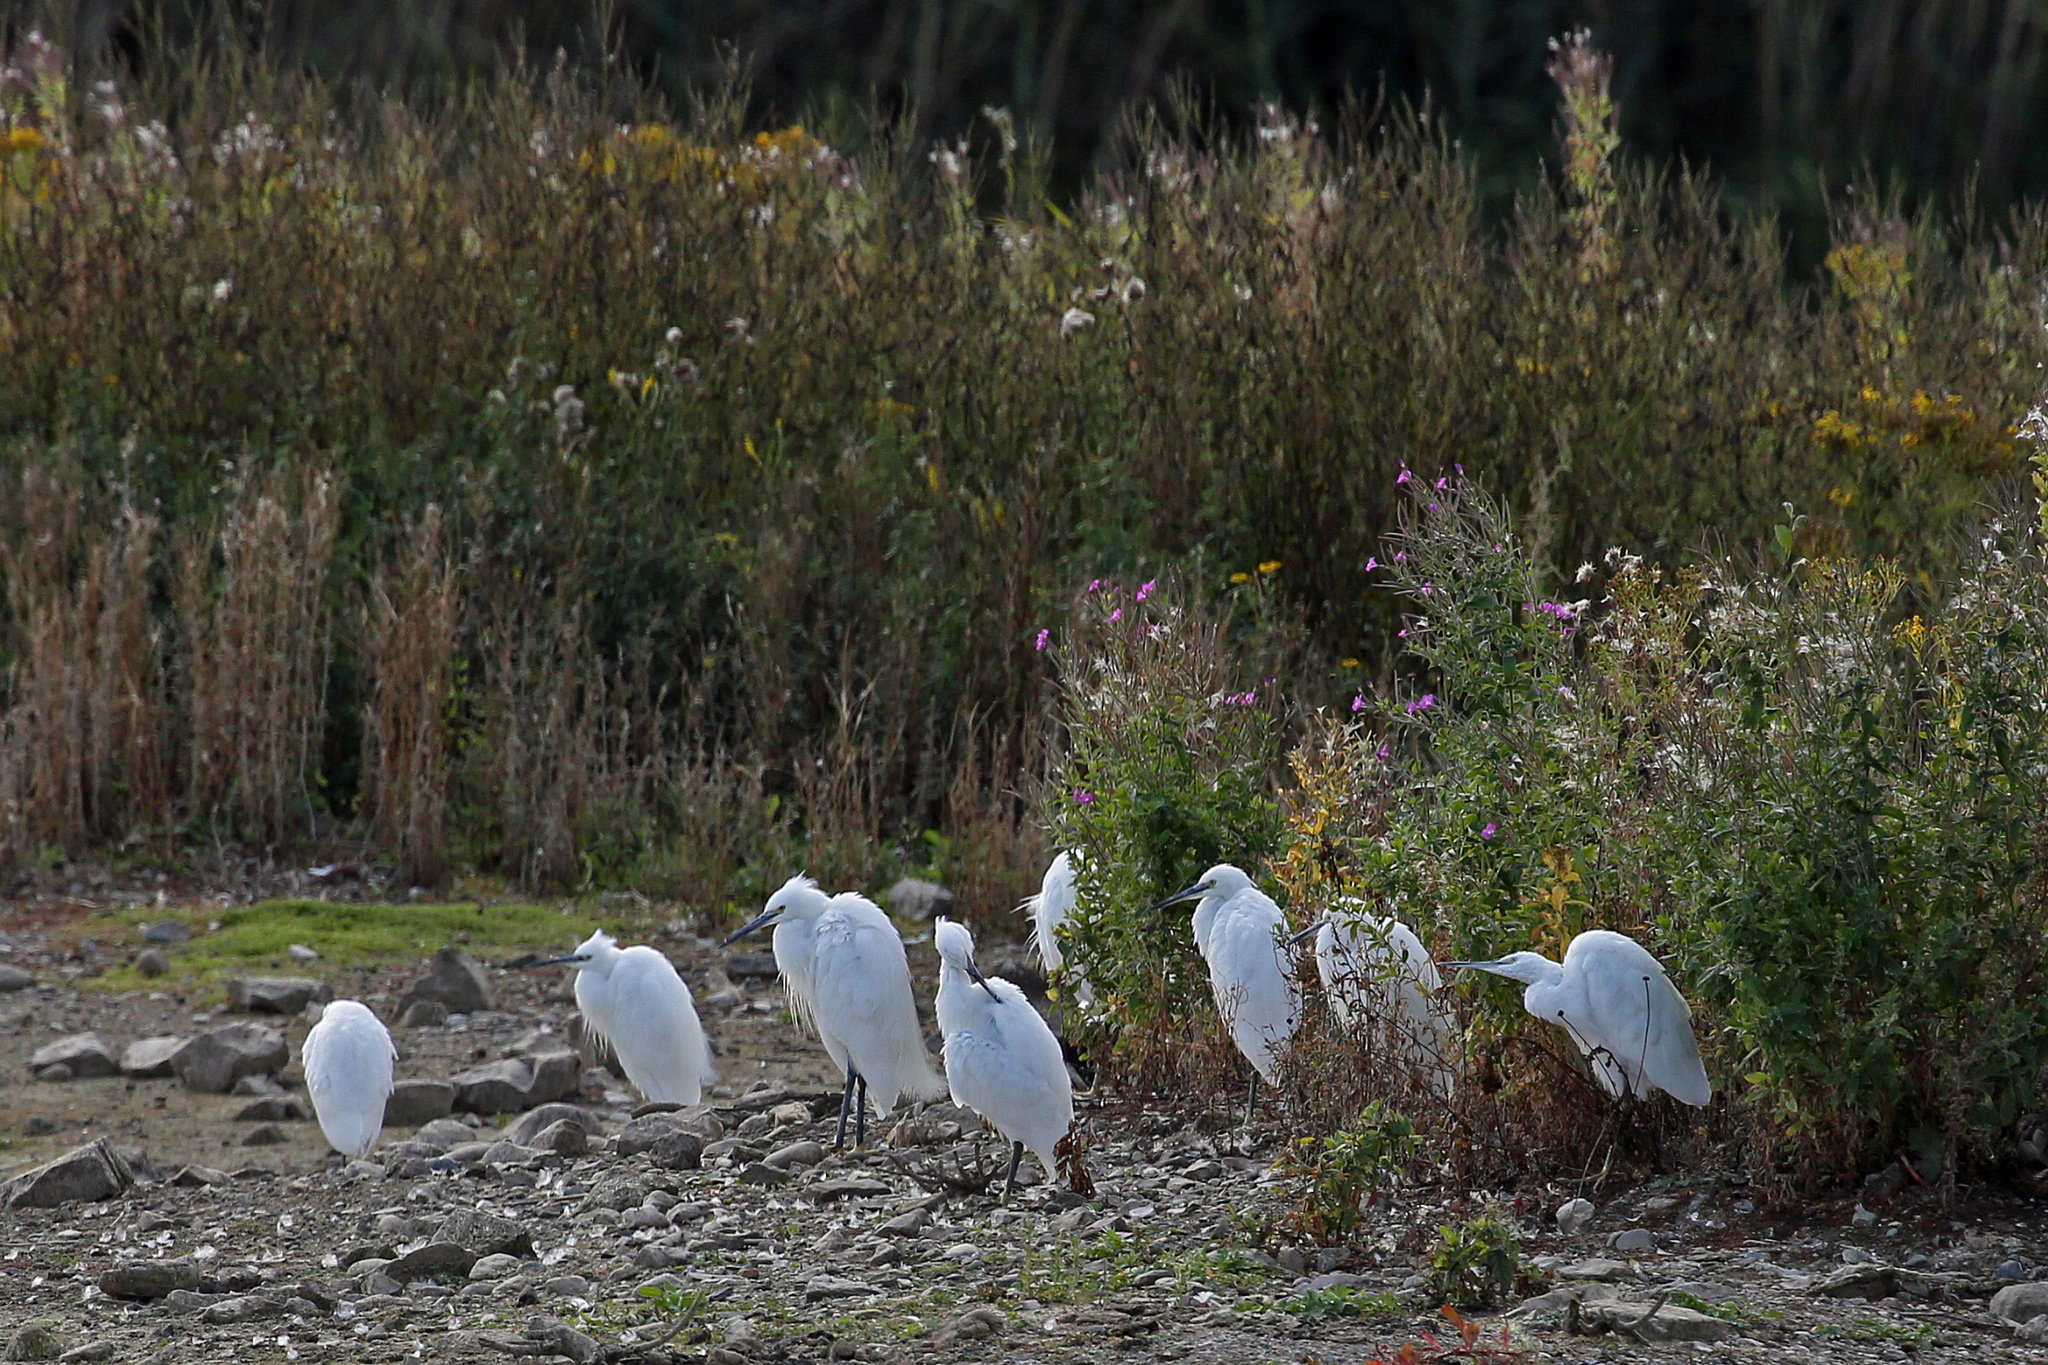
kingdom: Animalia
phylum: Chordata
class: Aves
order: Pelecaniformes
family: Ardeidae
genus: Egretta
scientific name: Egretta garzetta
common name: Little egret
